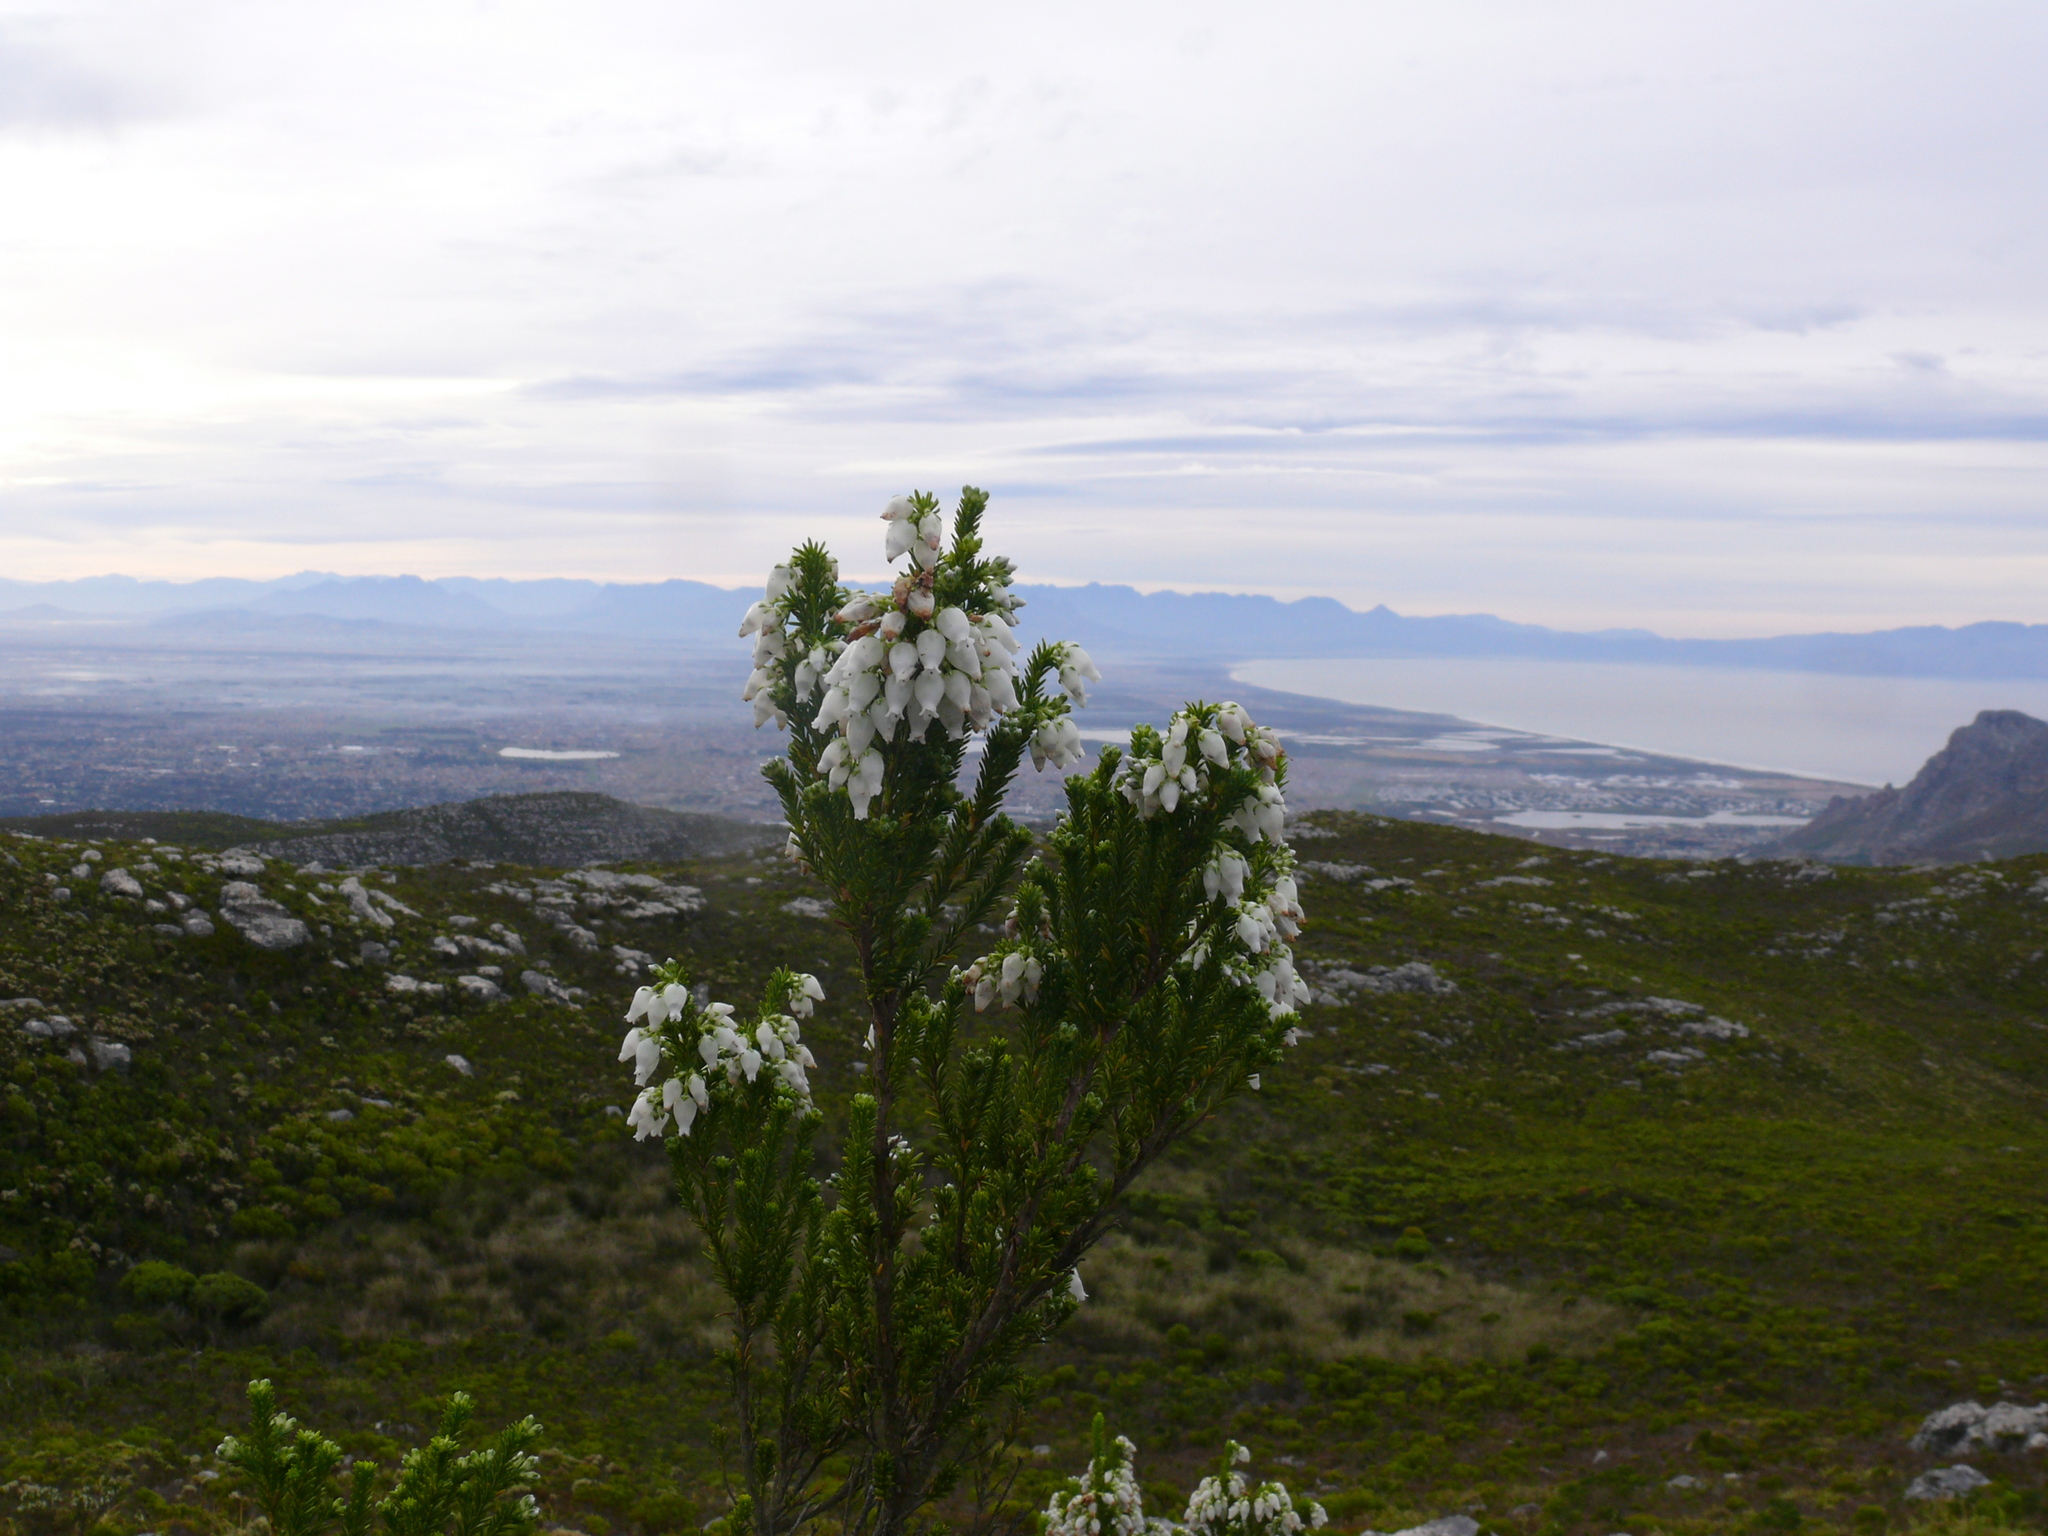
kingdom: Plantae
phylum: Tracheophyta
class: Magnoliopsida
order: Ericales
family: Ericaceae
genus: Erica
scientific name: Erica physodes
